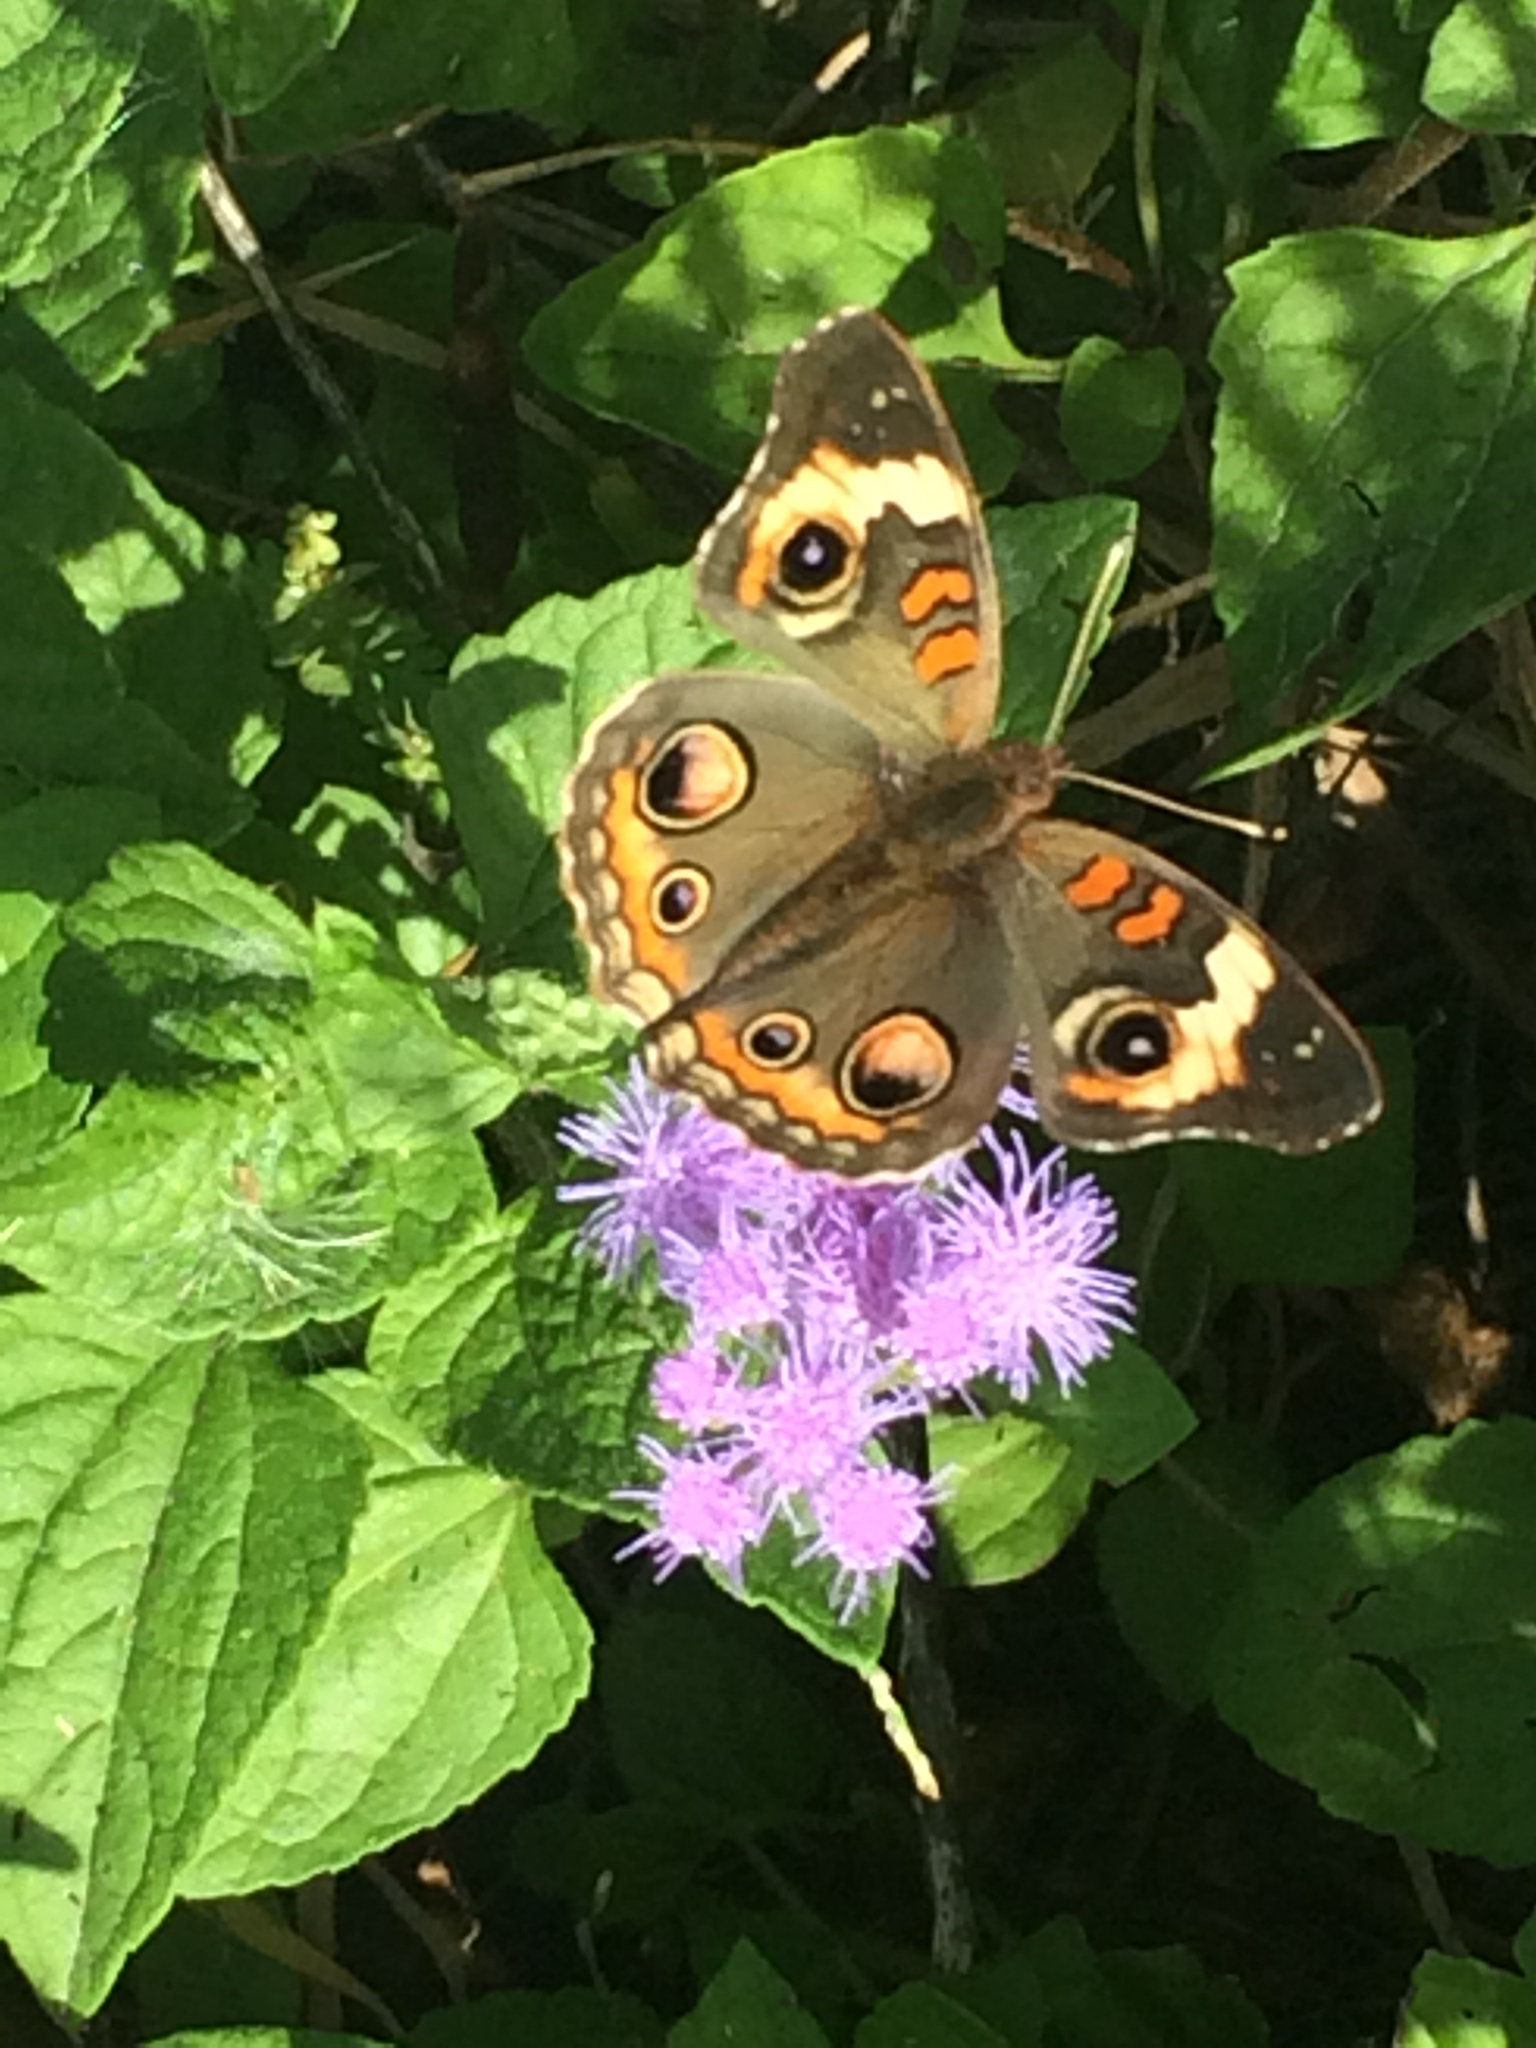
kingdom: Animalia
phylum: Arthropoda
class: Insecta
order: Lepidoptera
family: Nymphalidae
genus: Junonia
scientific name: Junonia coenia
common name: Common buckeye
